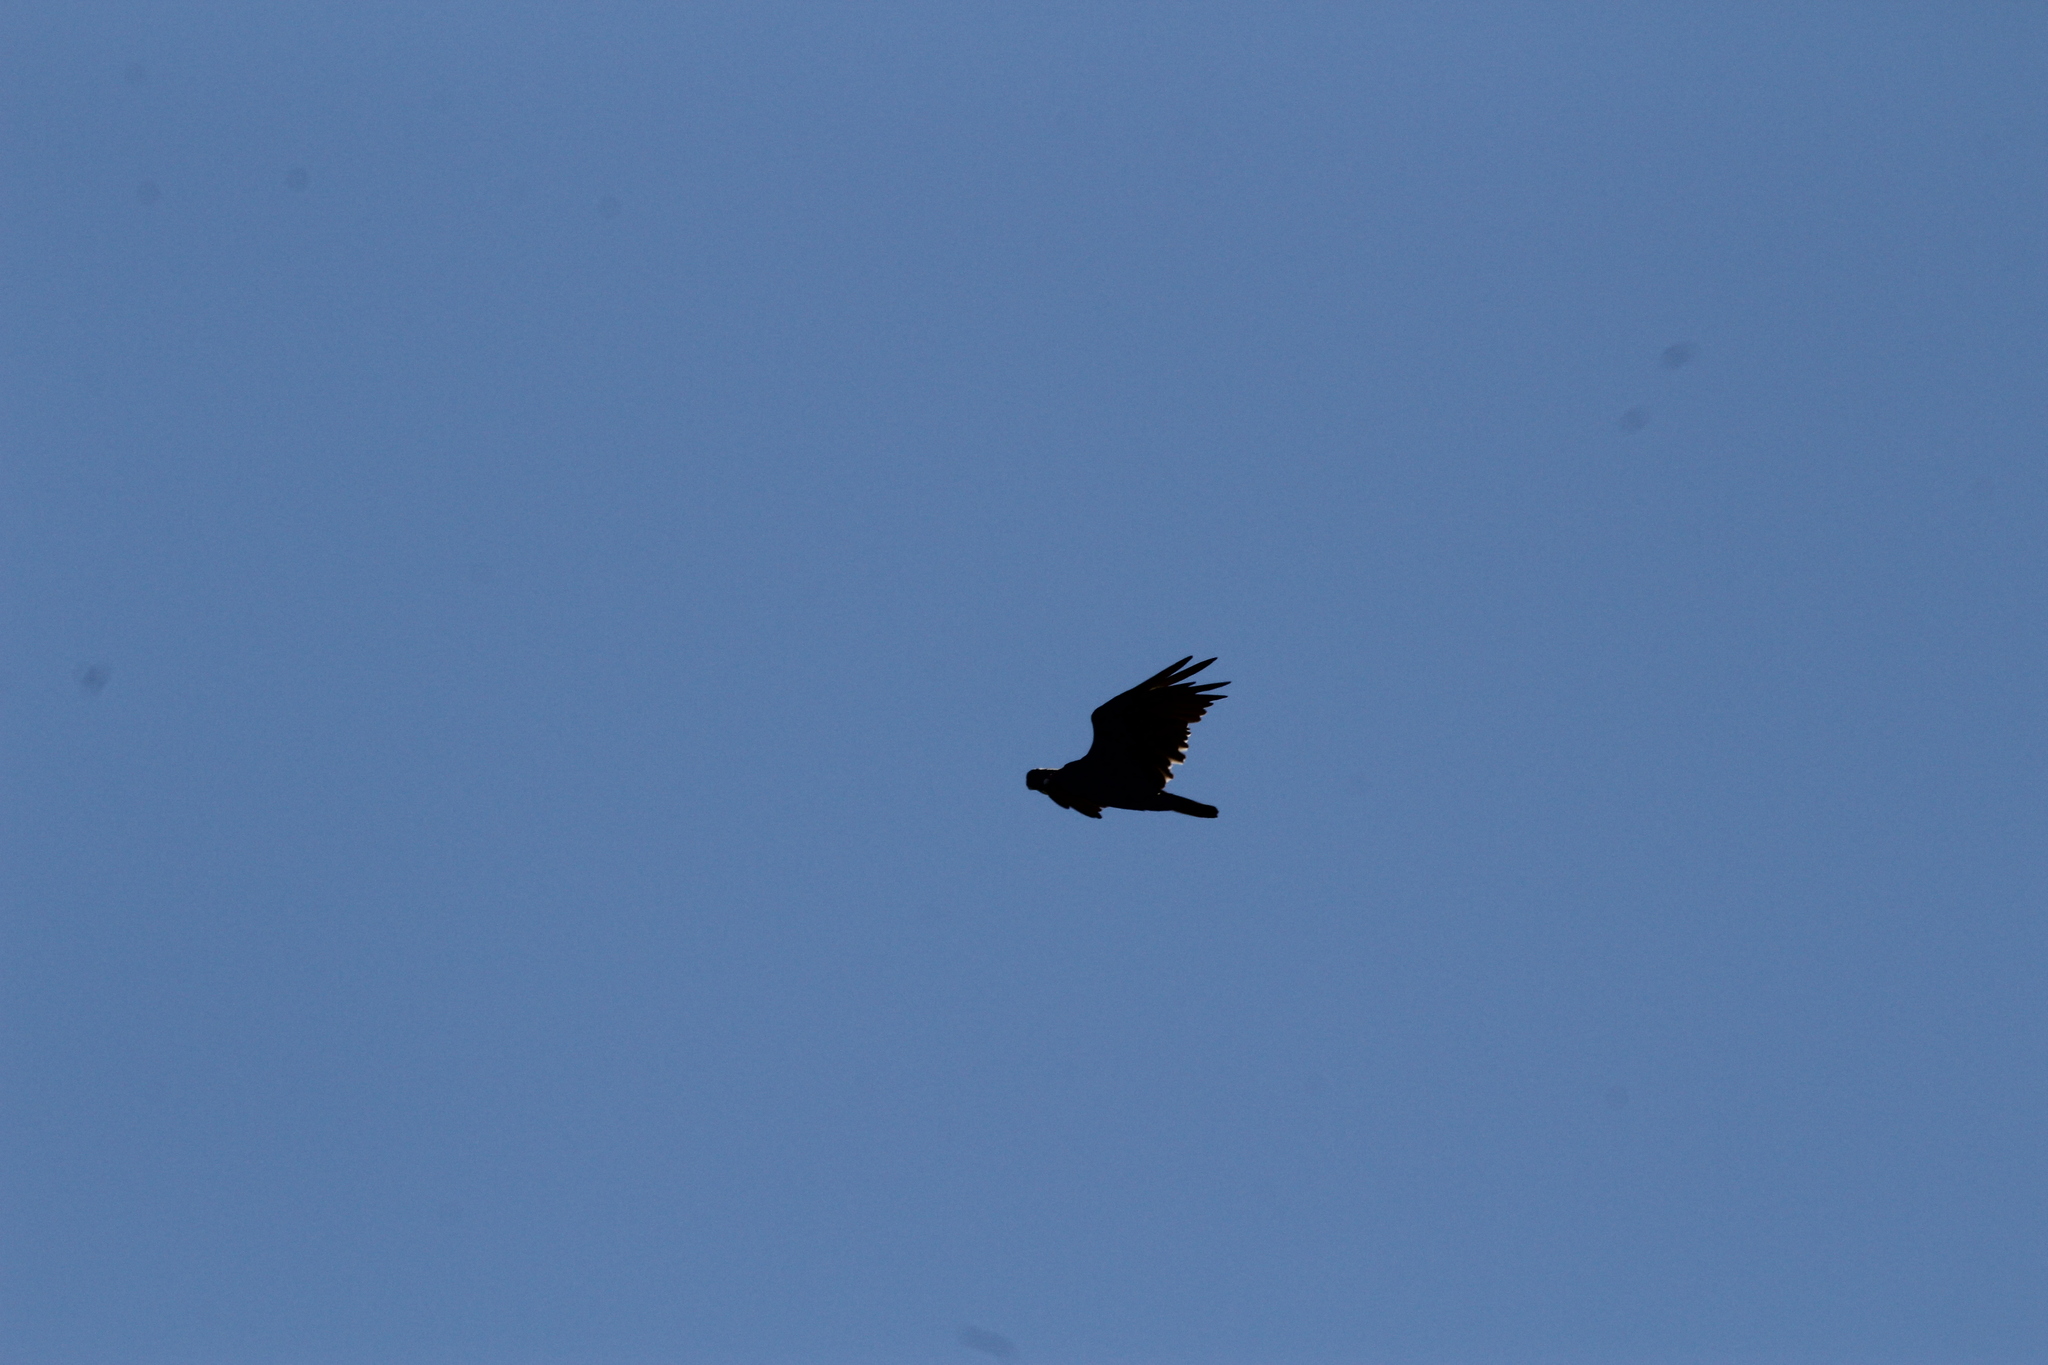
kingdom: Animalia
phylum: Chordata
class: Aves
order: Accipitriformes
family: Cathartidae
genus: Cathartes
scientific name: Cathartes aura
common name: Turkey vulture
